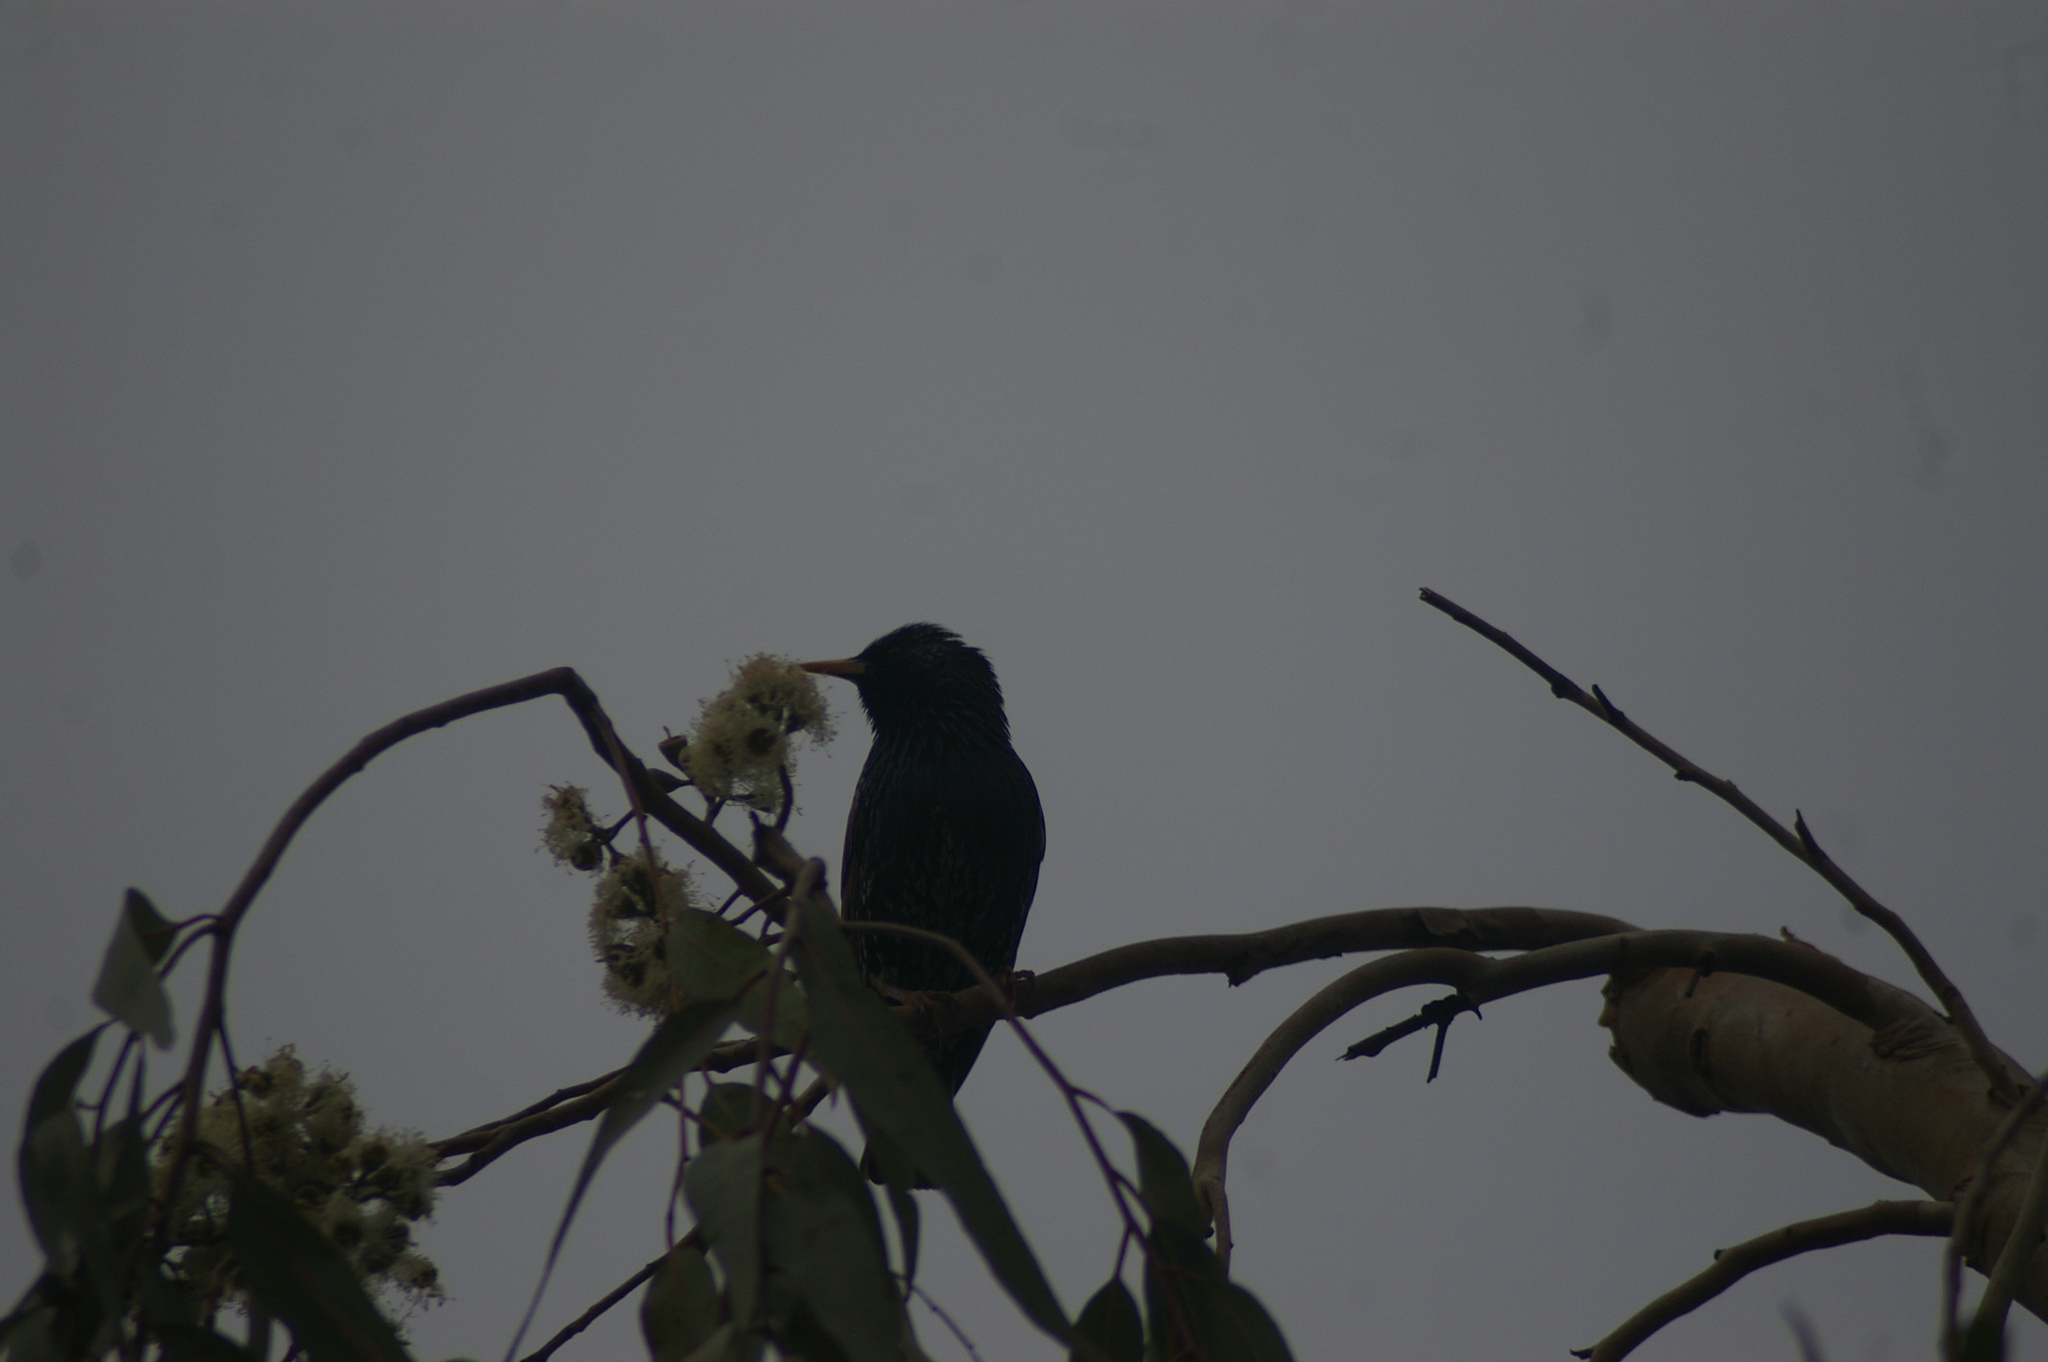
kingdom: Animalia
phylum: Chordata
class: Aves
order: Passeriformes
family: Sturnidae
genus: Sturnus
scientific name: Sturnus vulgaris
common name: Common starling
